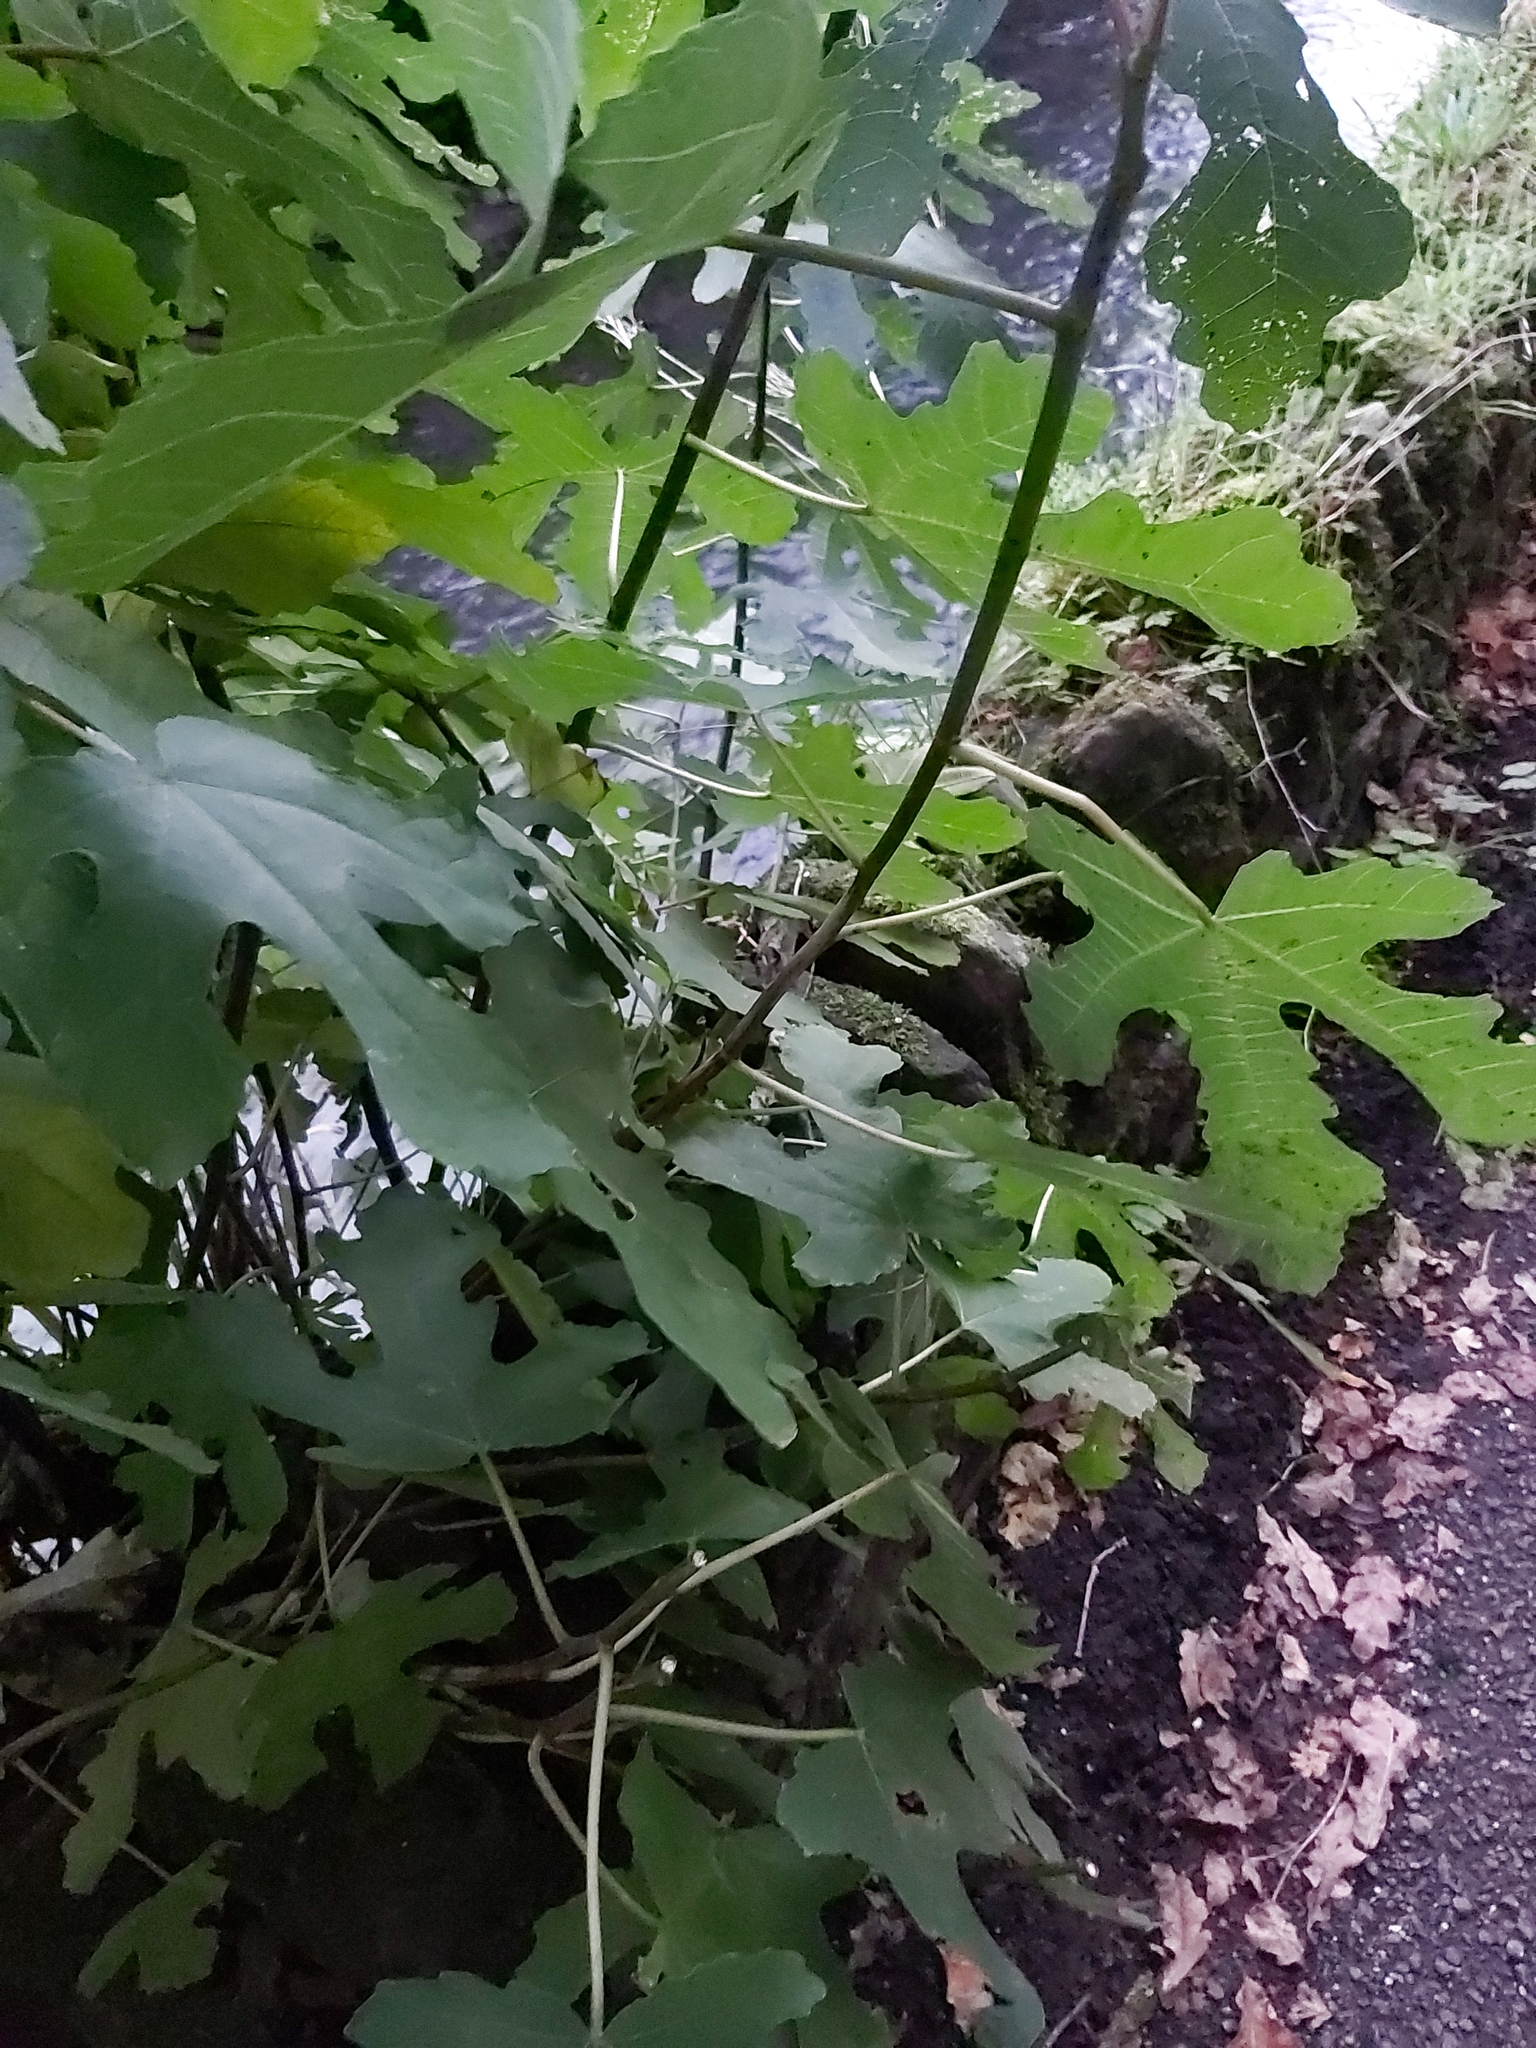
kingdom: Plantae
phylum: Tracheophyta
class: Magnoliopsida
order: Rosales
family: Moraceae
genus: Ficus
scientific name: Ficus carica
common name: Fig
